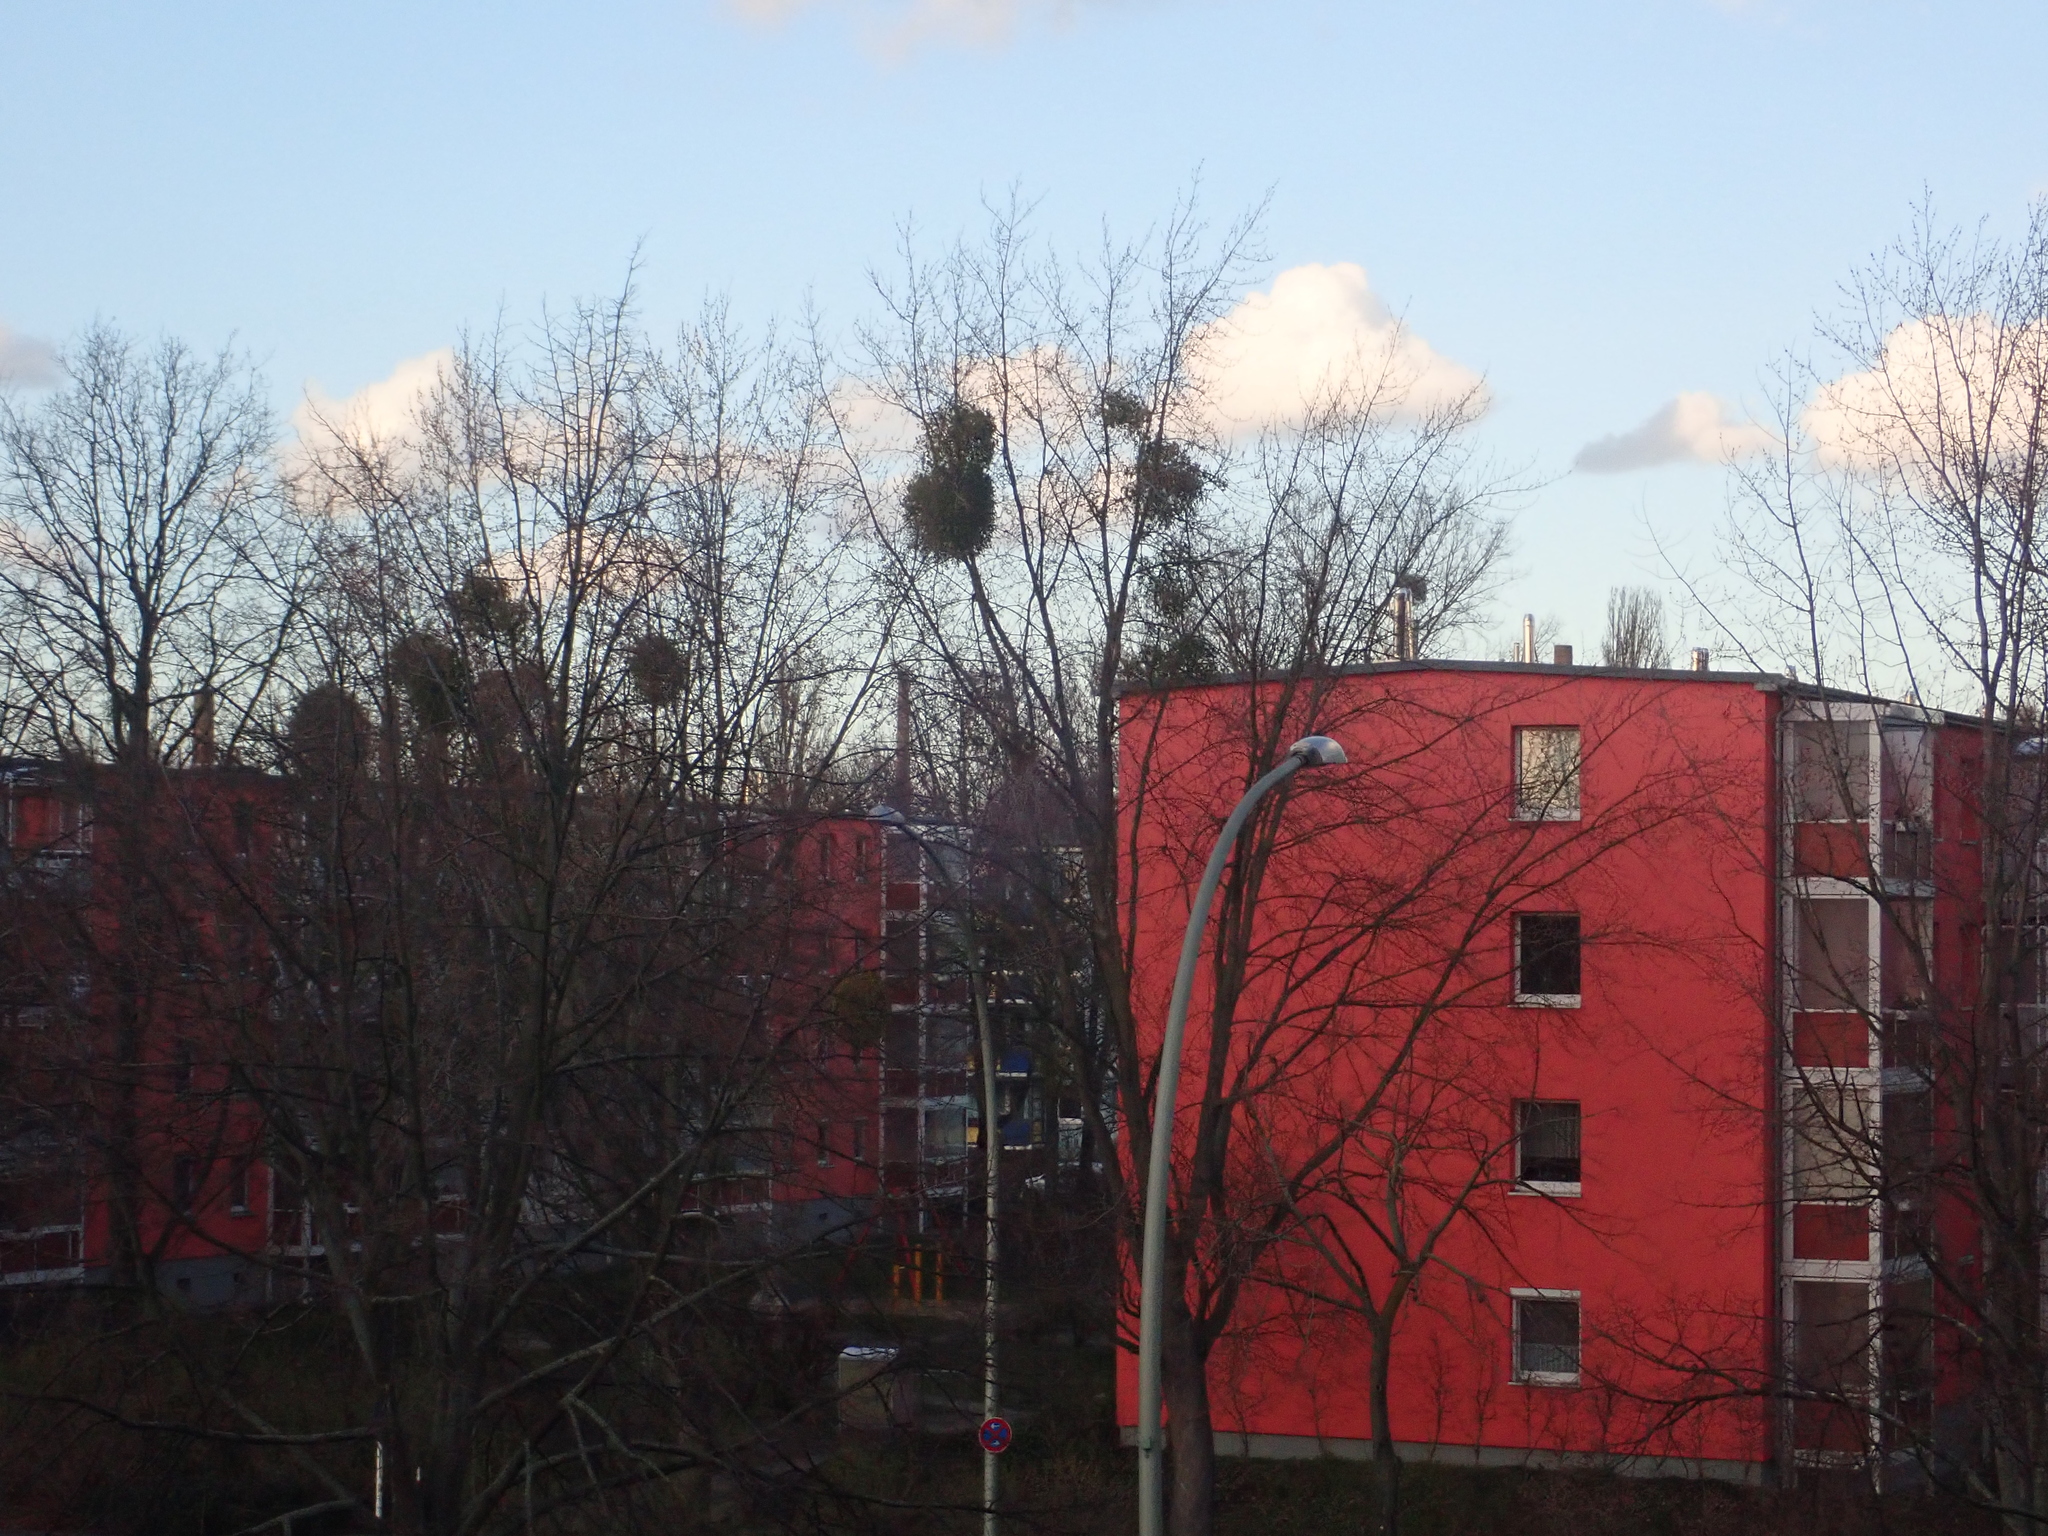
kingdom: Plantae
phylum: Tracheophyta
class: Magnoliopsida
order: Santalales
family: Viscaceae
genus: Viscum
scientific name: Viscum album
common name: Mistletoe
